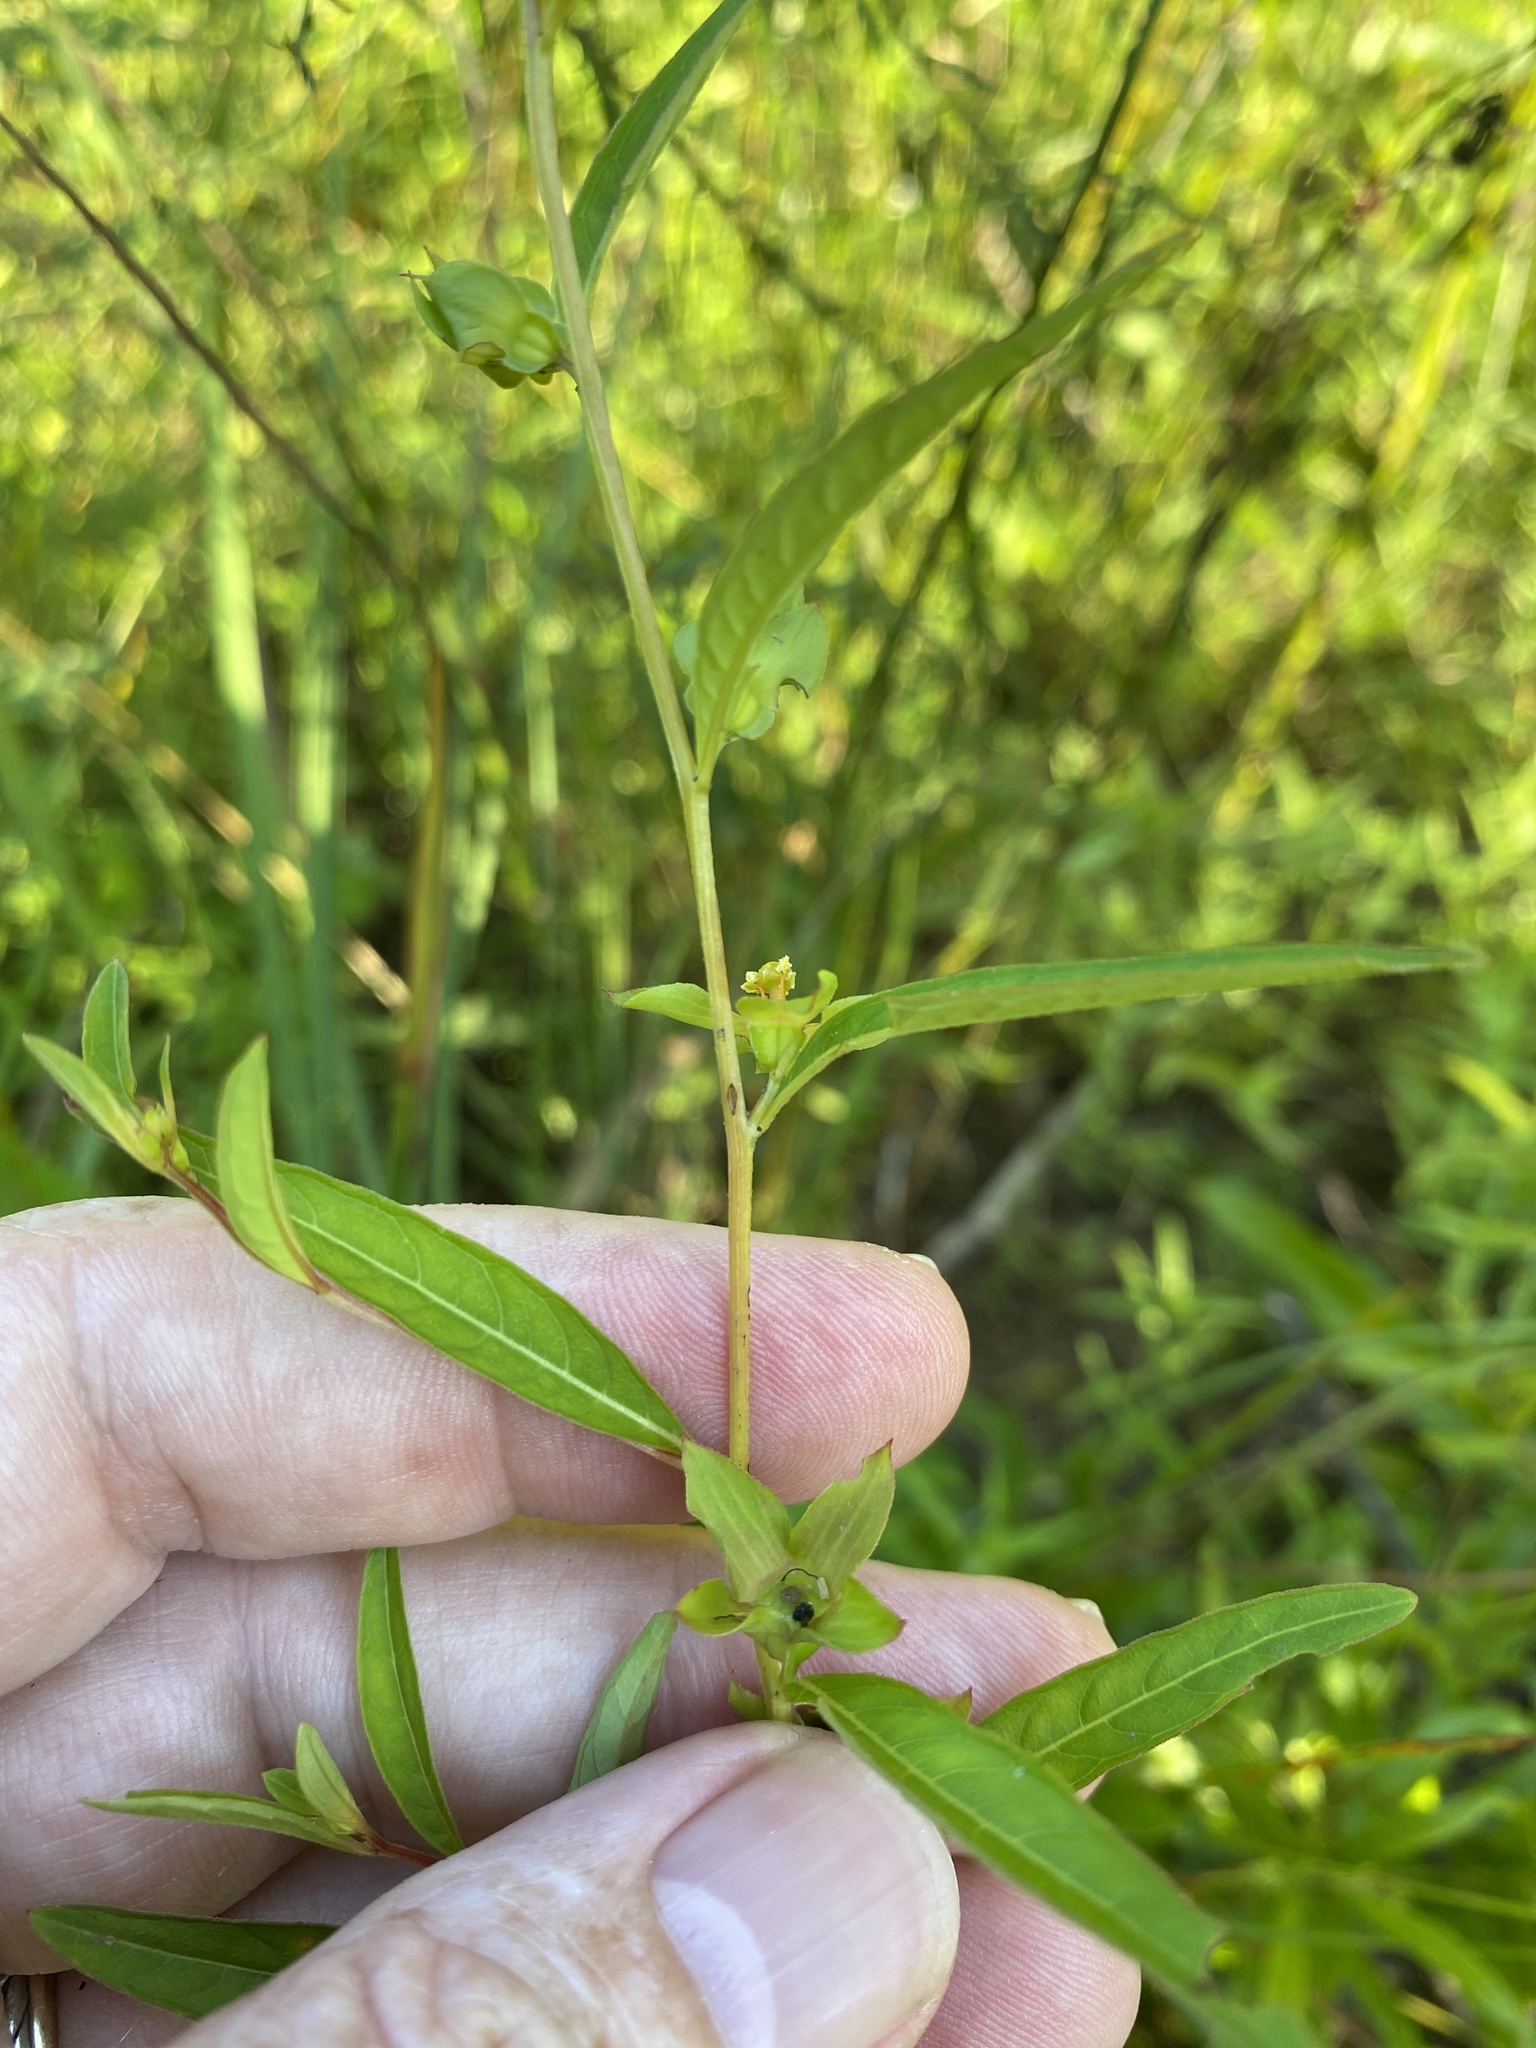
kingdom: Plantae
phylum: Tracheophyta
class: Magnoliopsida
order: Myrtales
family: Onagraceae
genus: Ludwigia
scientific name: Ludwigia alternifolia
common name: Rattlebox
